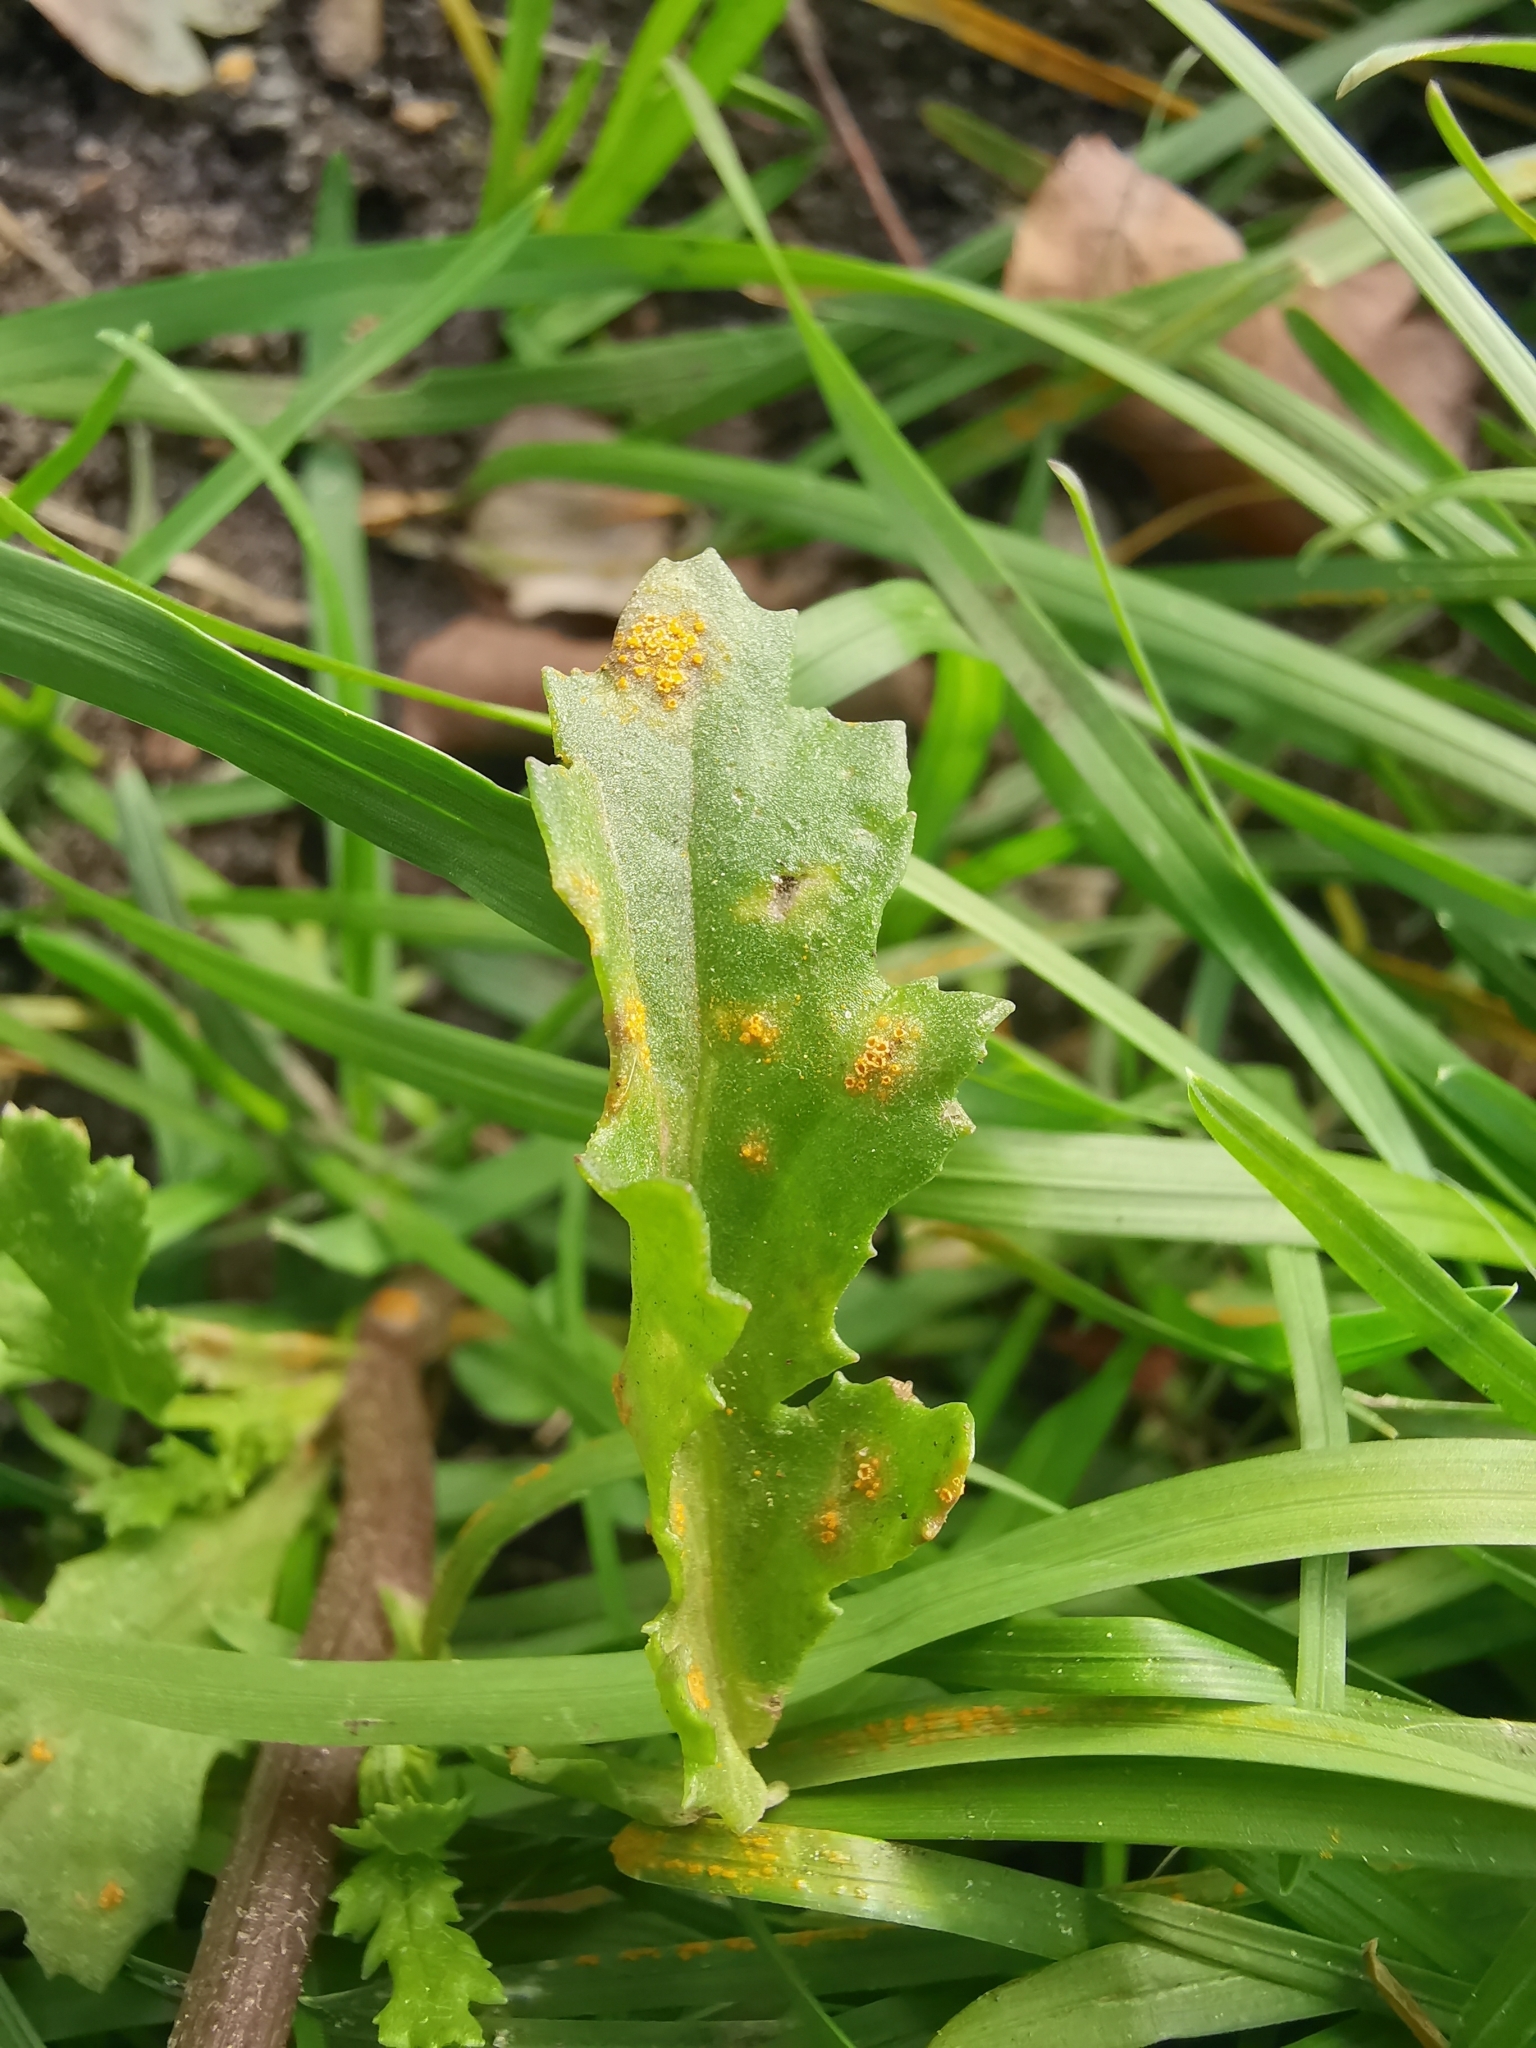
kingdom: Fungi
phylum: Basidiomycota
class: Pucciniomycetes
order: Pucciniales
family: Pucciniaceae
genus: Puccinia
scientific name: Puccinia lagenophorae
